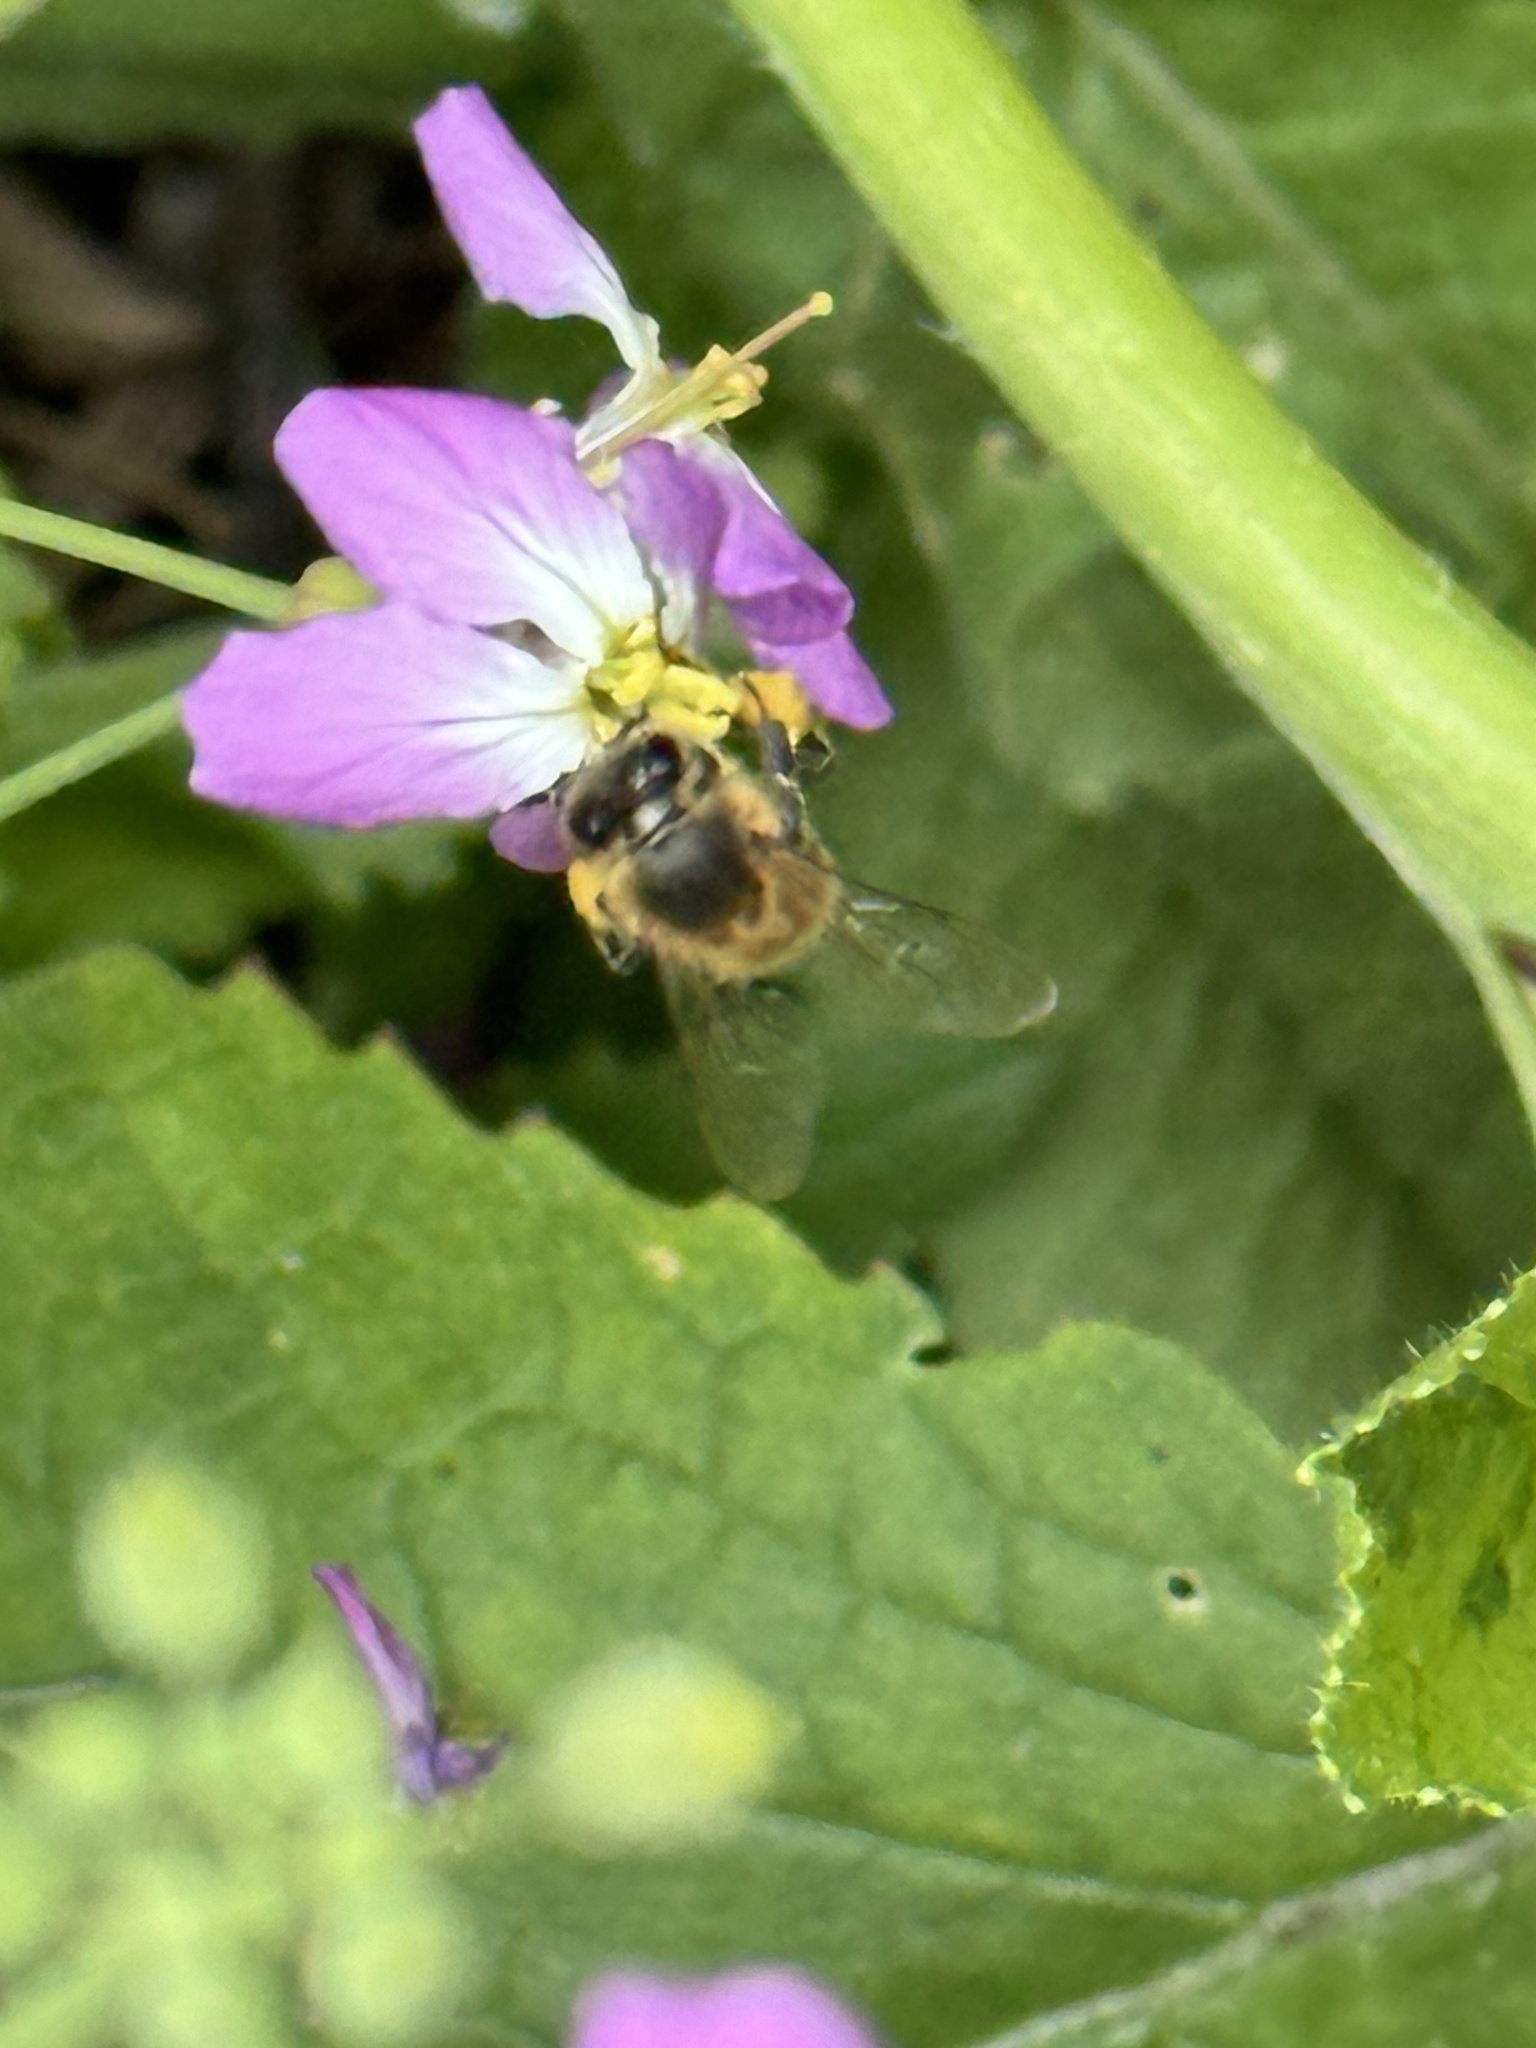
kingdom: Plantae
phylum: Tracheophyta
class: Magnoliopsida
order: Brassicales
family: Brassicaceae
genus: Raphanus
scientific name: Raphanus raphanistrum
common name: Wild radish
